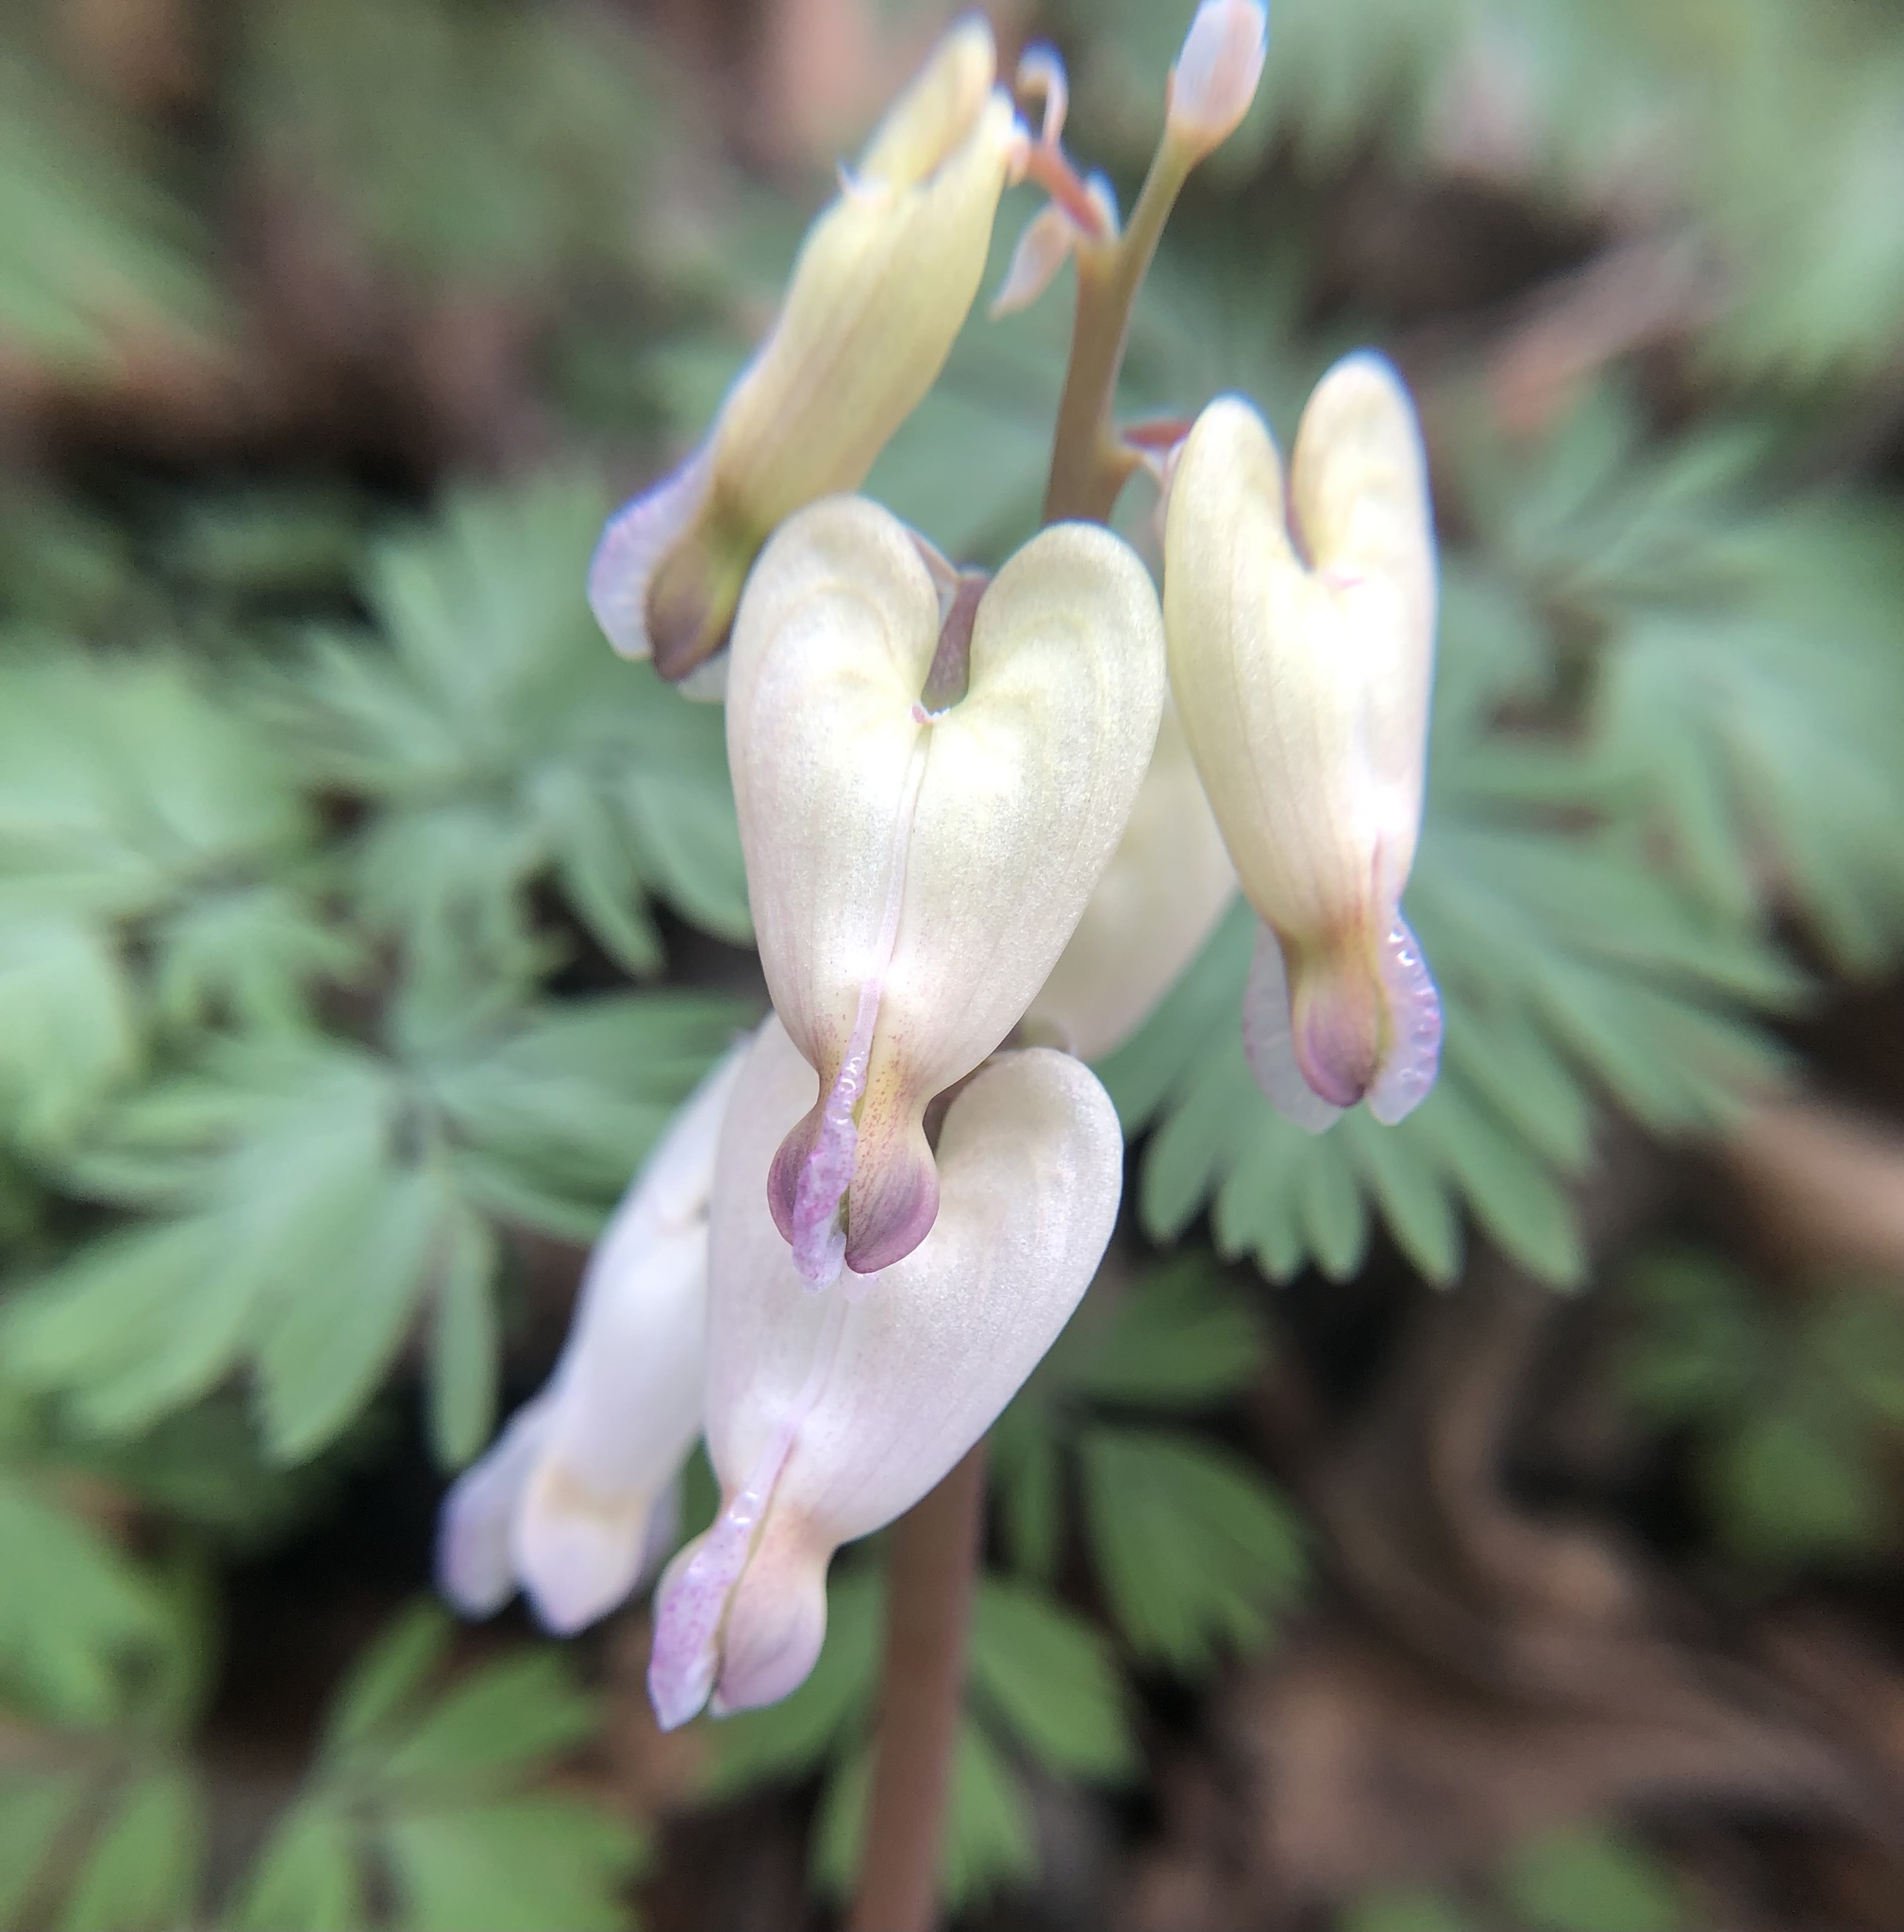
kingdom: Plantae
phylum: Tracheophyta
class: Magnoliopsida
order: Ranunculales
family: Papaveraceae
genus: Dicentra
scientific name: Dicentra canadensis
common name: Squirrel-corn
